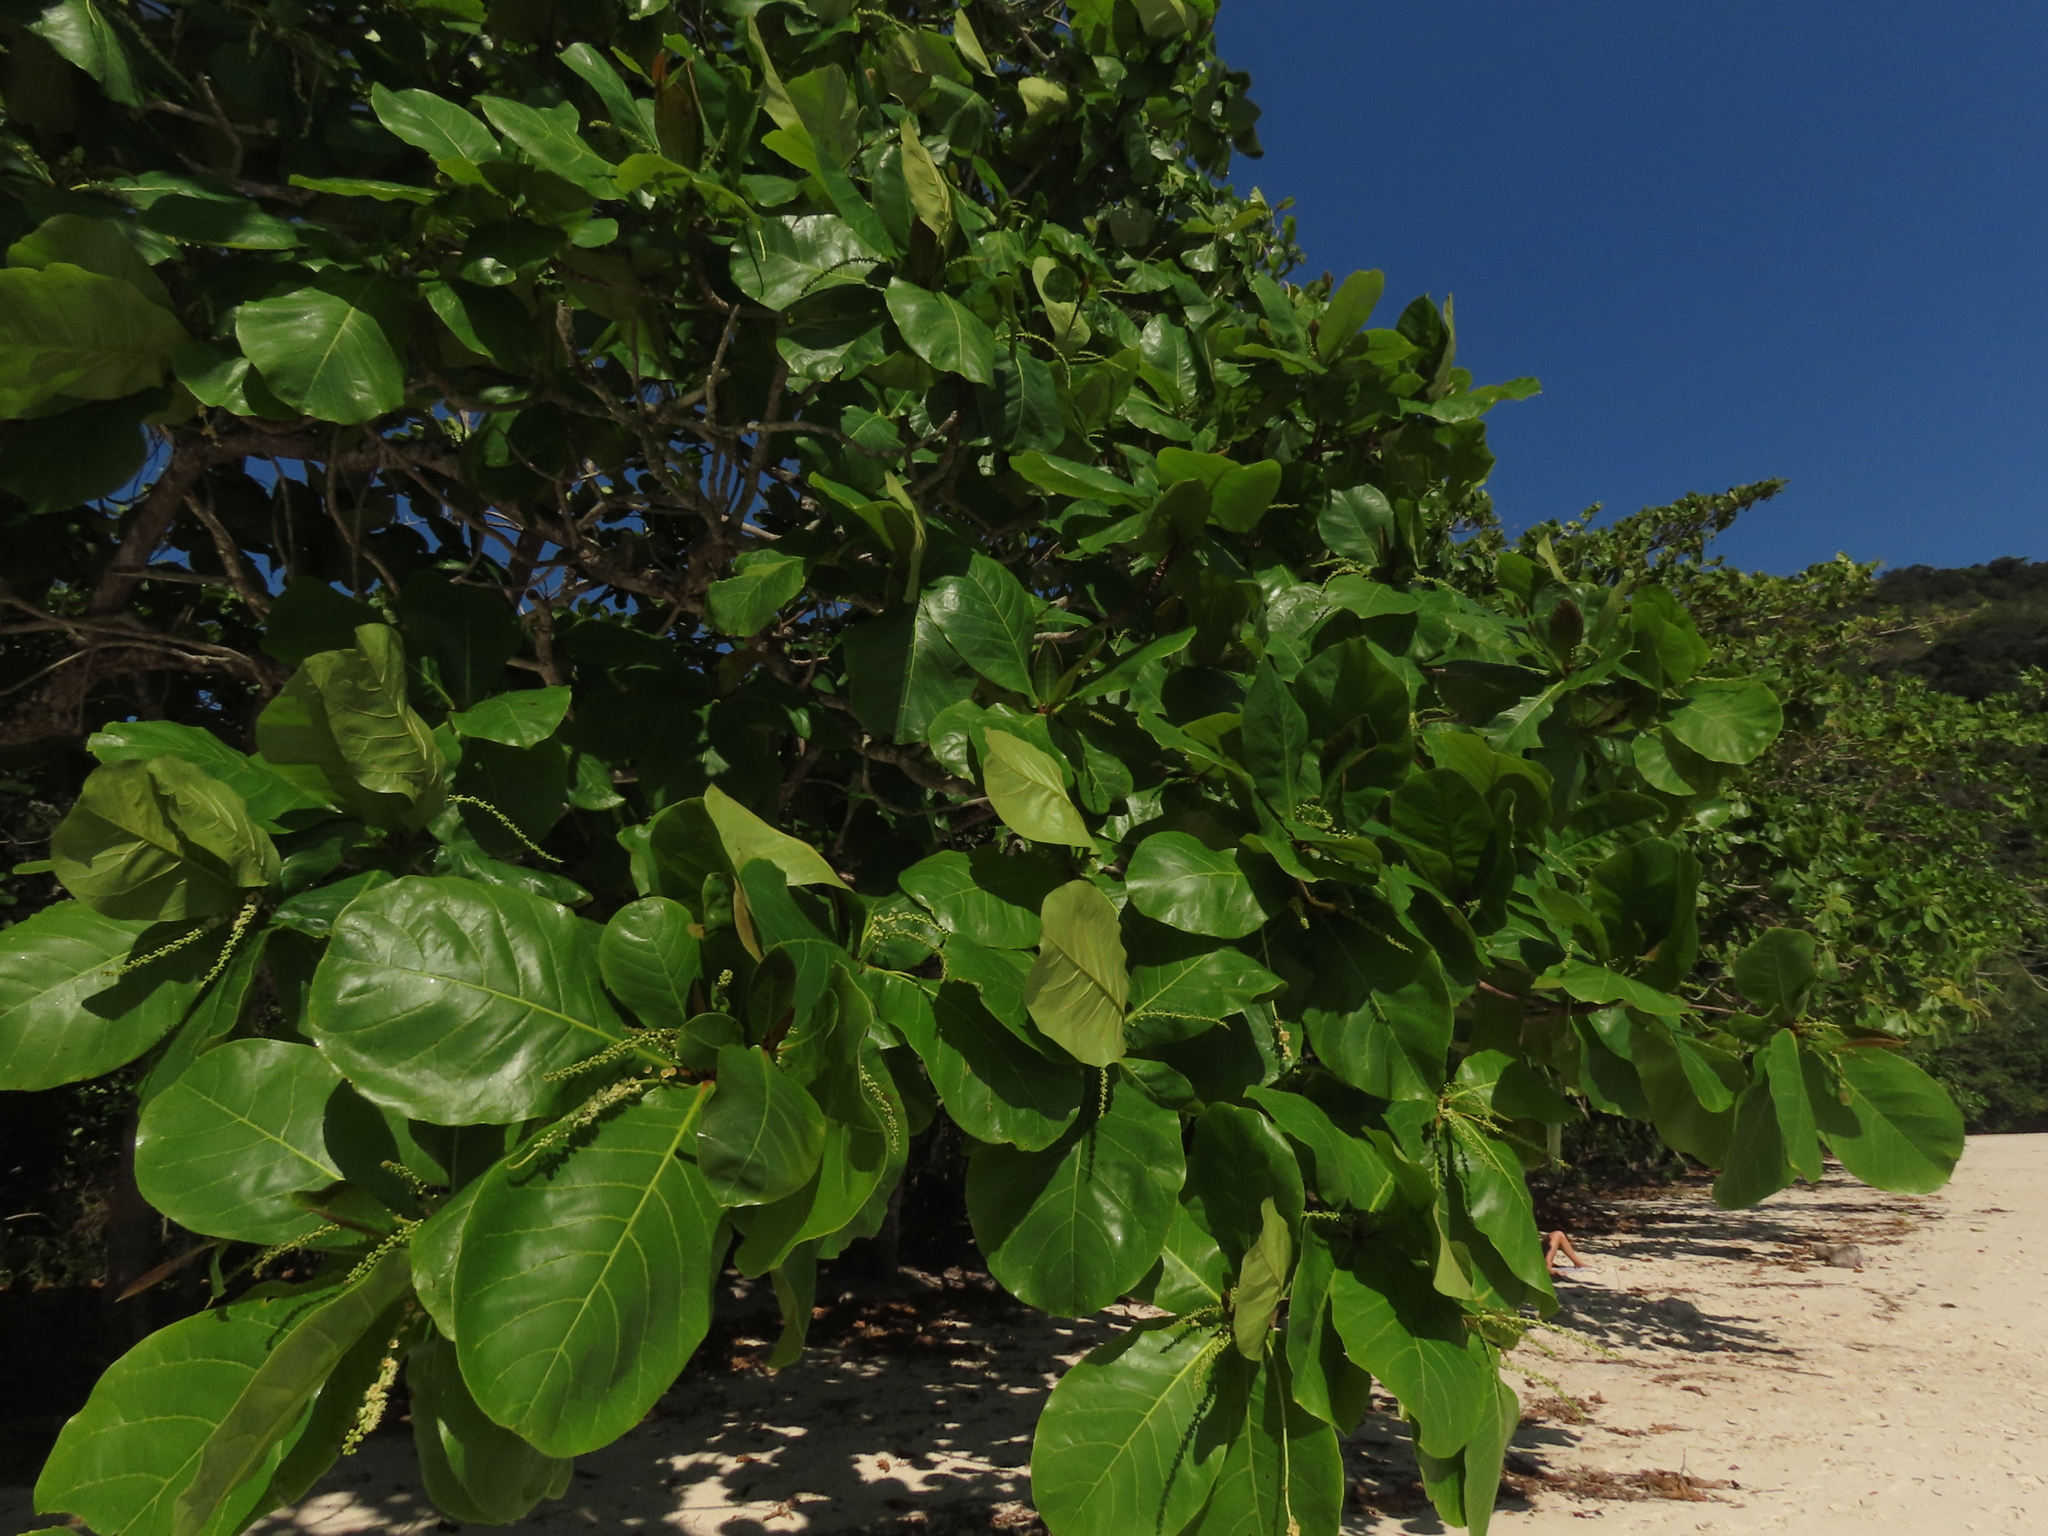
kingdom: Plantae
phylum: Tracheophyta
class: Magnoliopsida
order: Myrtales
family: Combretaceae
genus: Terminalia
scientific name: Terminalia catappa
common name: Tropical almond
